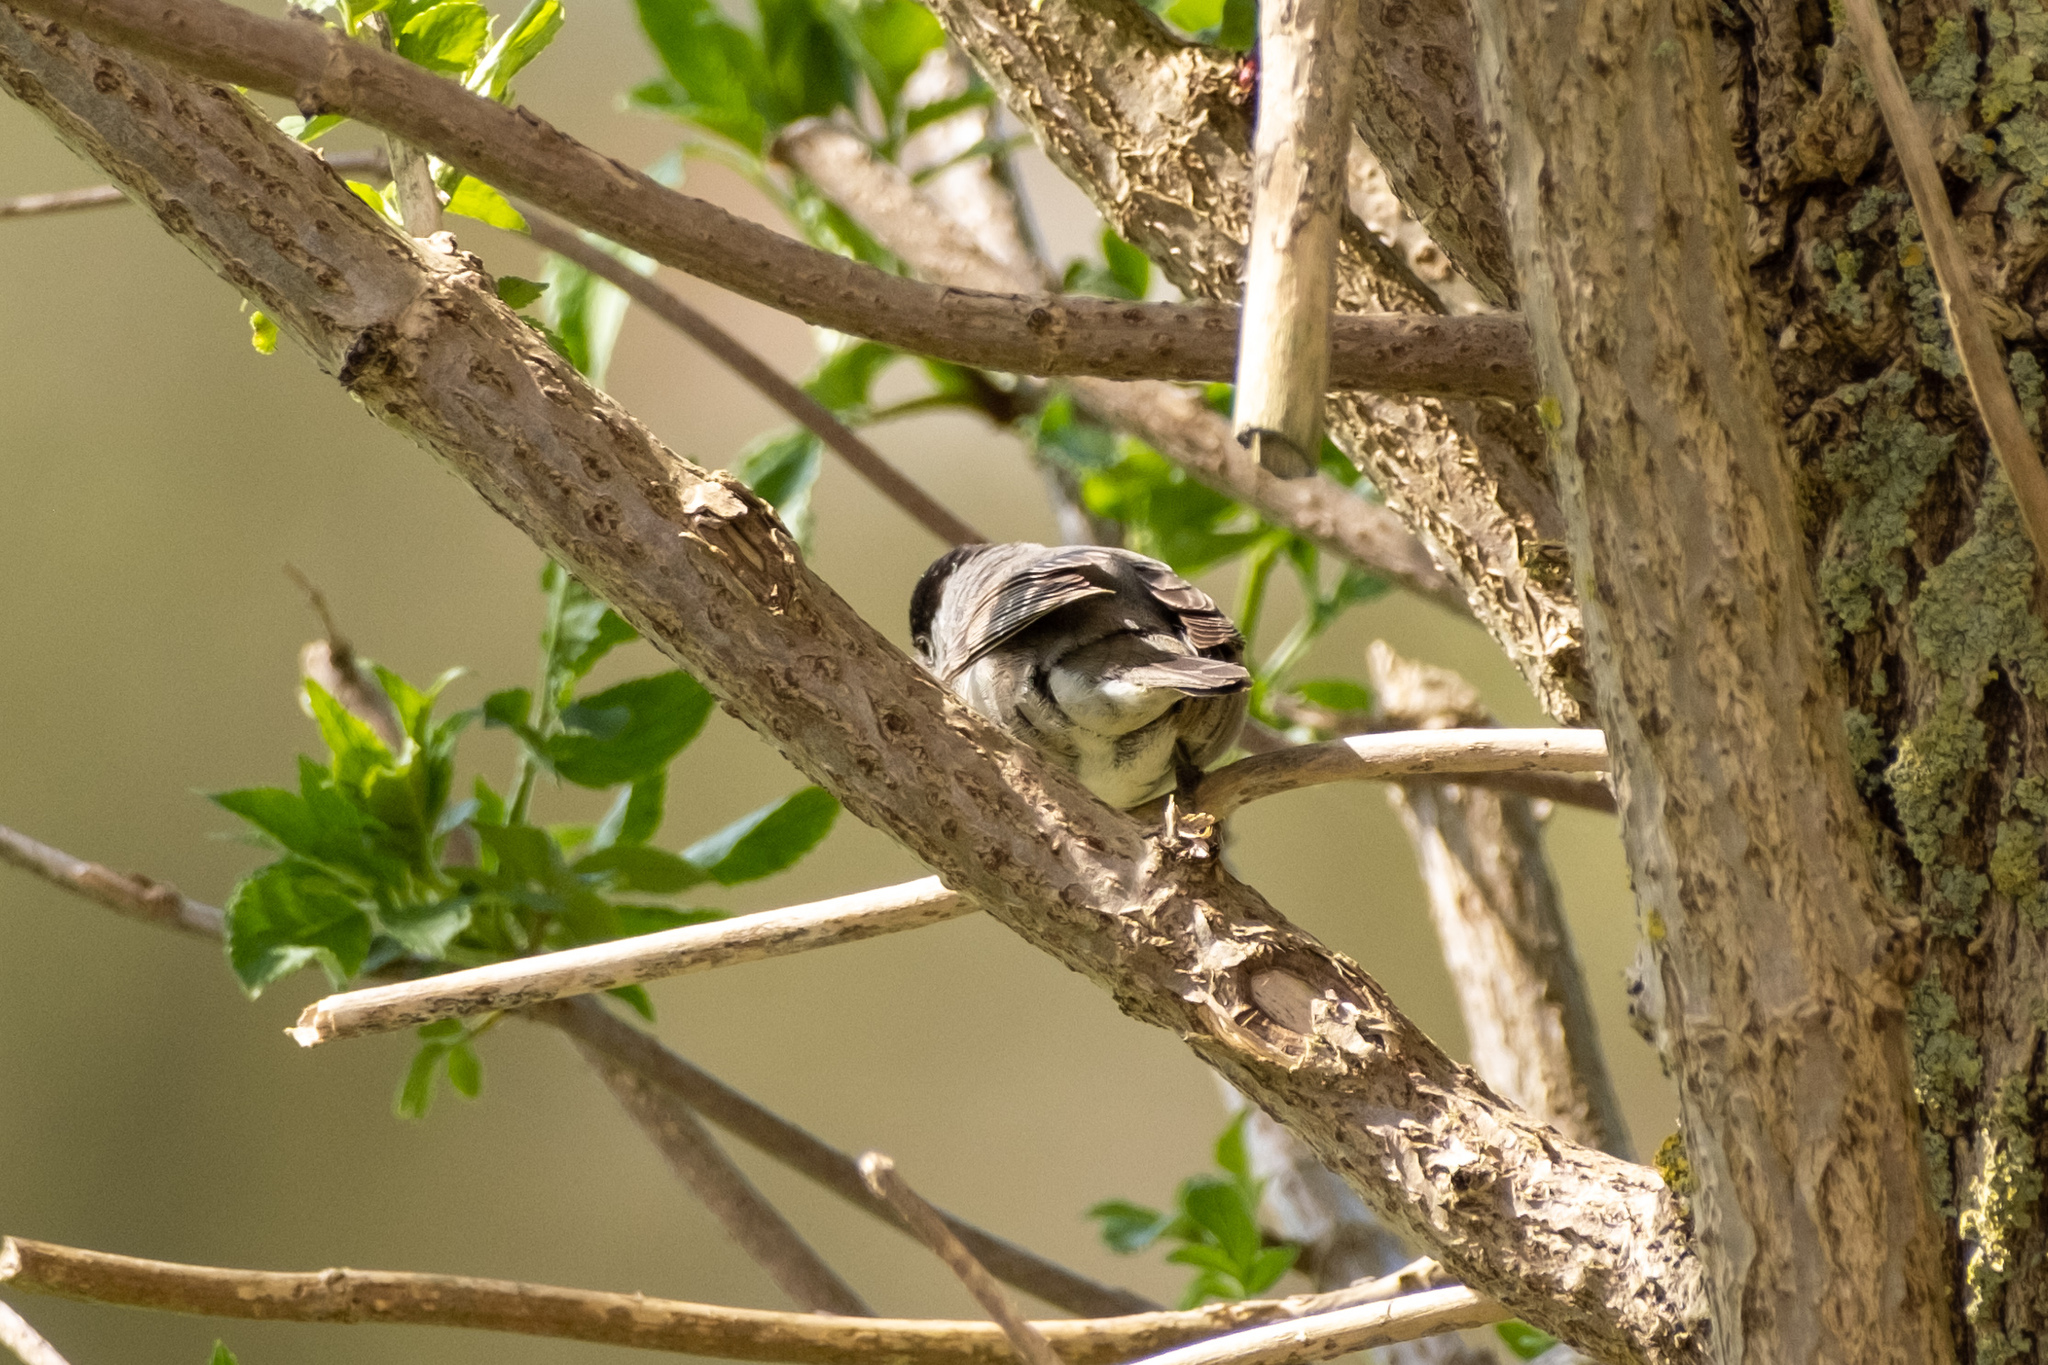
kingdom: Animalia
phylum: Chordata
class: Aves
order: Passeriformes
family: Sylviidae
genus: Sylvia
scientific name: Sylvia atricapilla
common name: Eurasian blackcap
